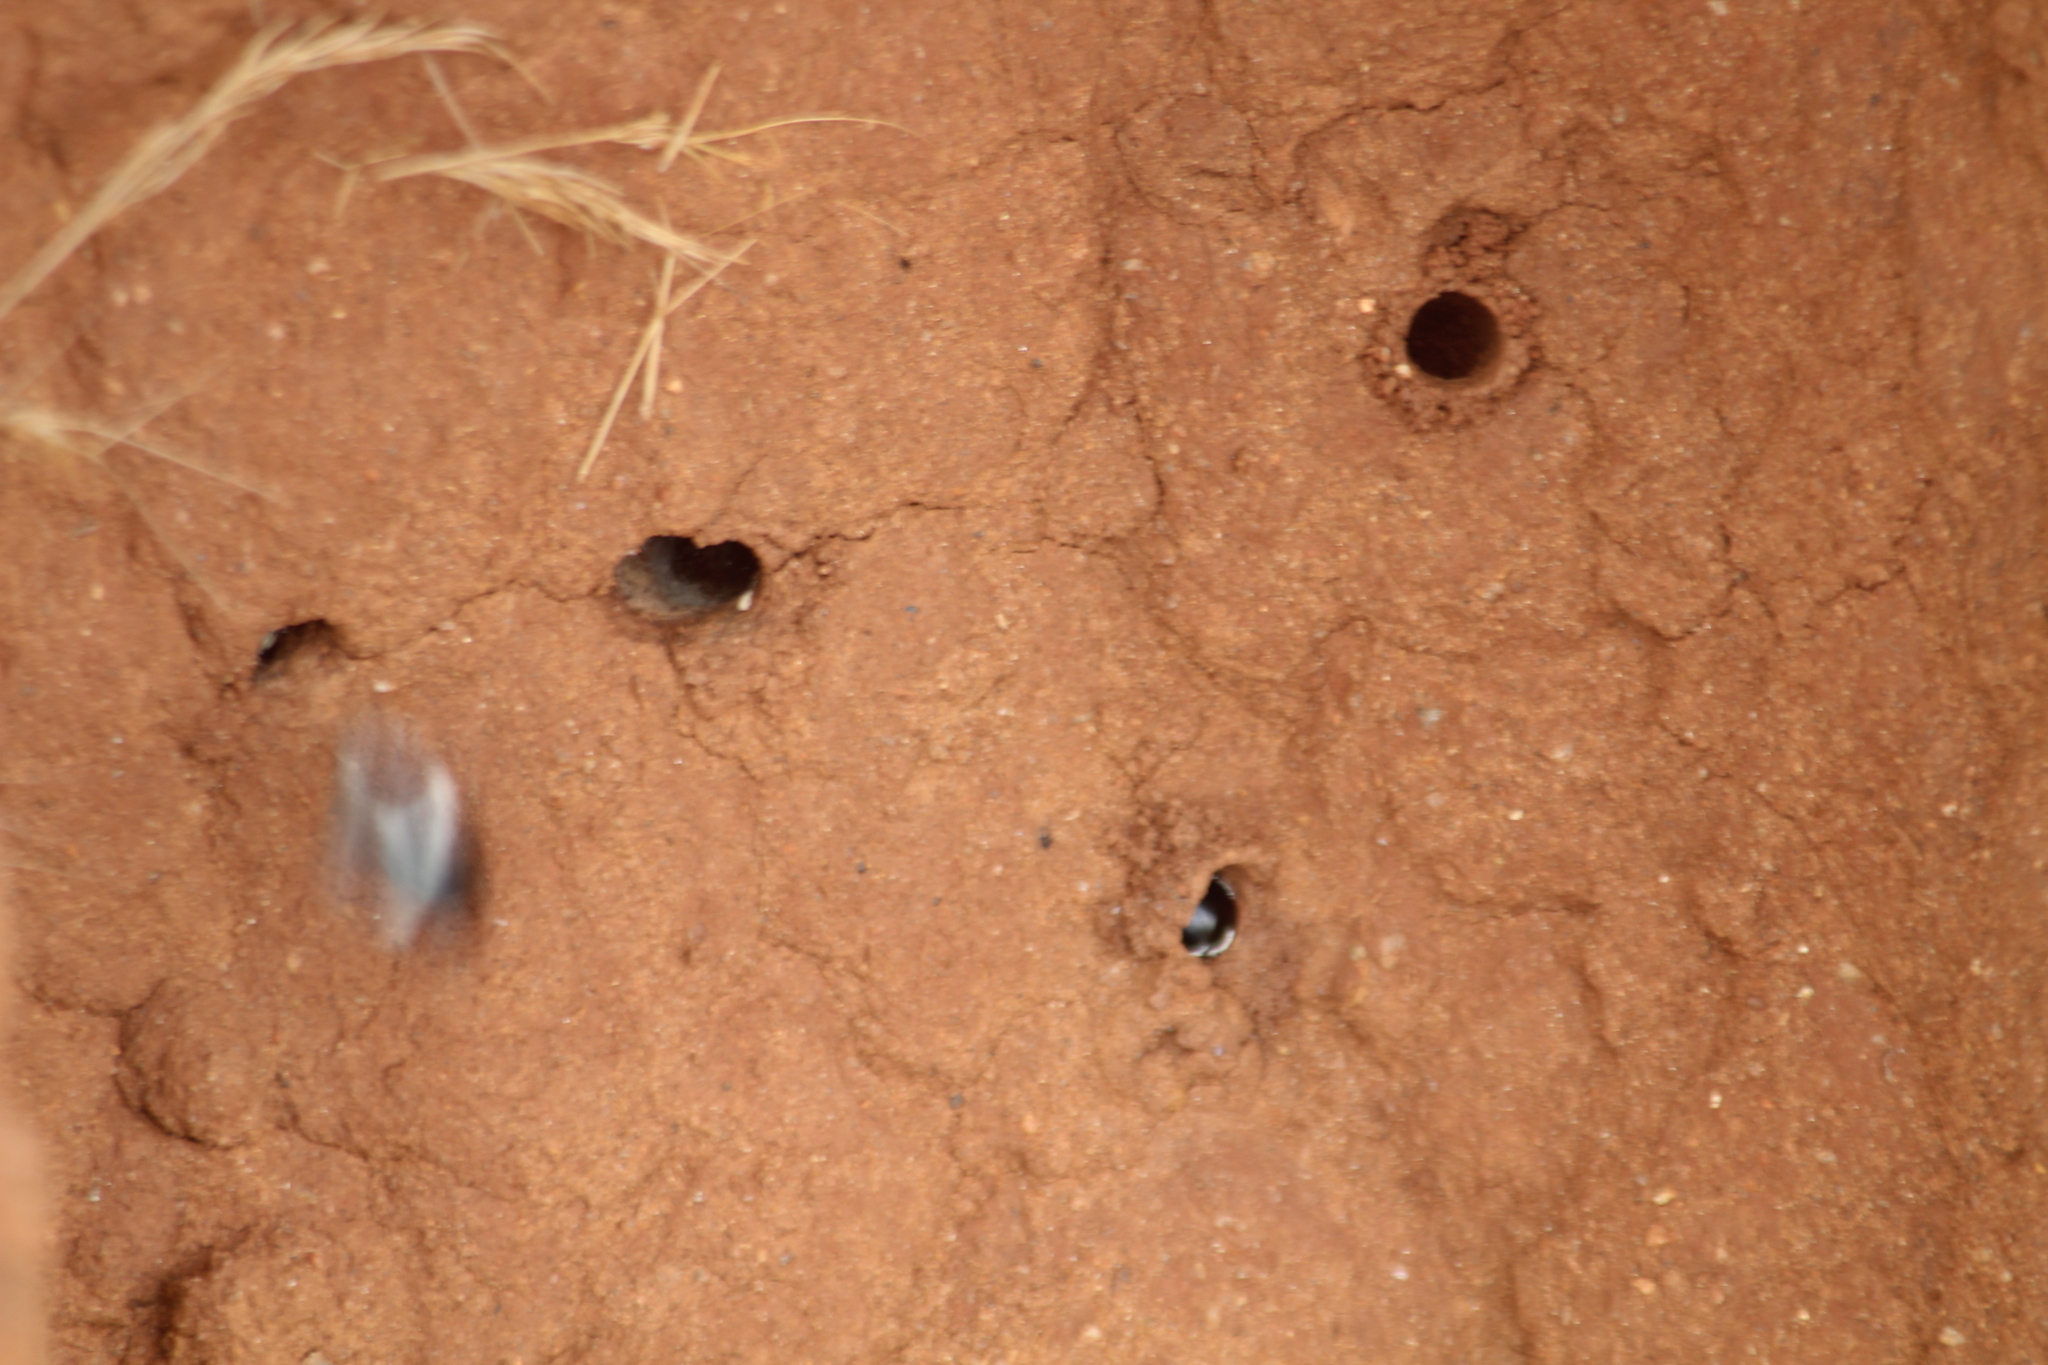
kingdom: Animalia
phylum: Arthropoda
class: Insecta
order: Hymenoptera
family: Apidae
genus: Amegilla
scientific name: Amegilla dizona
